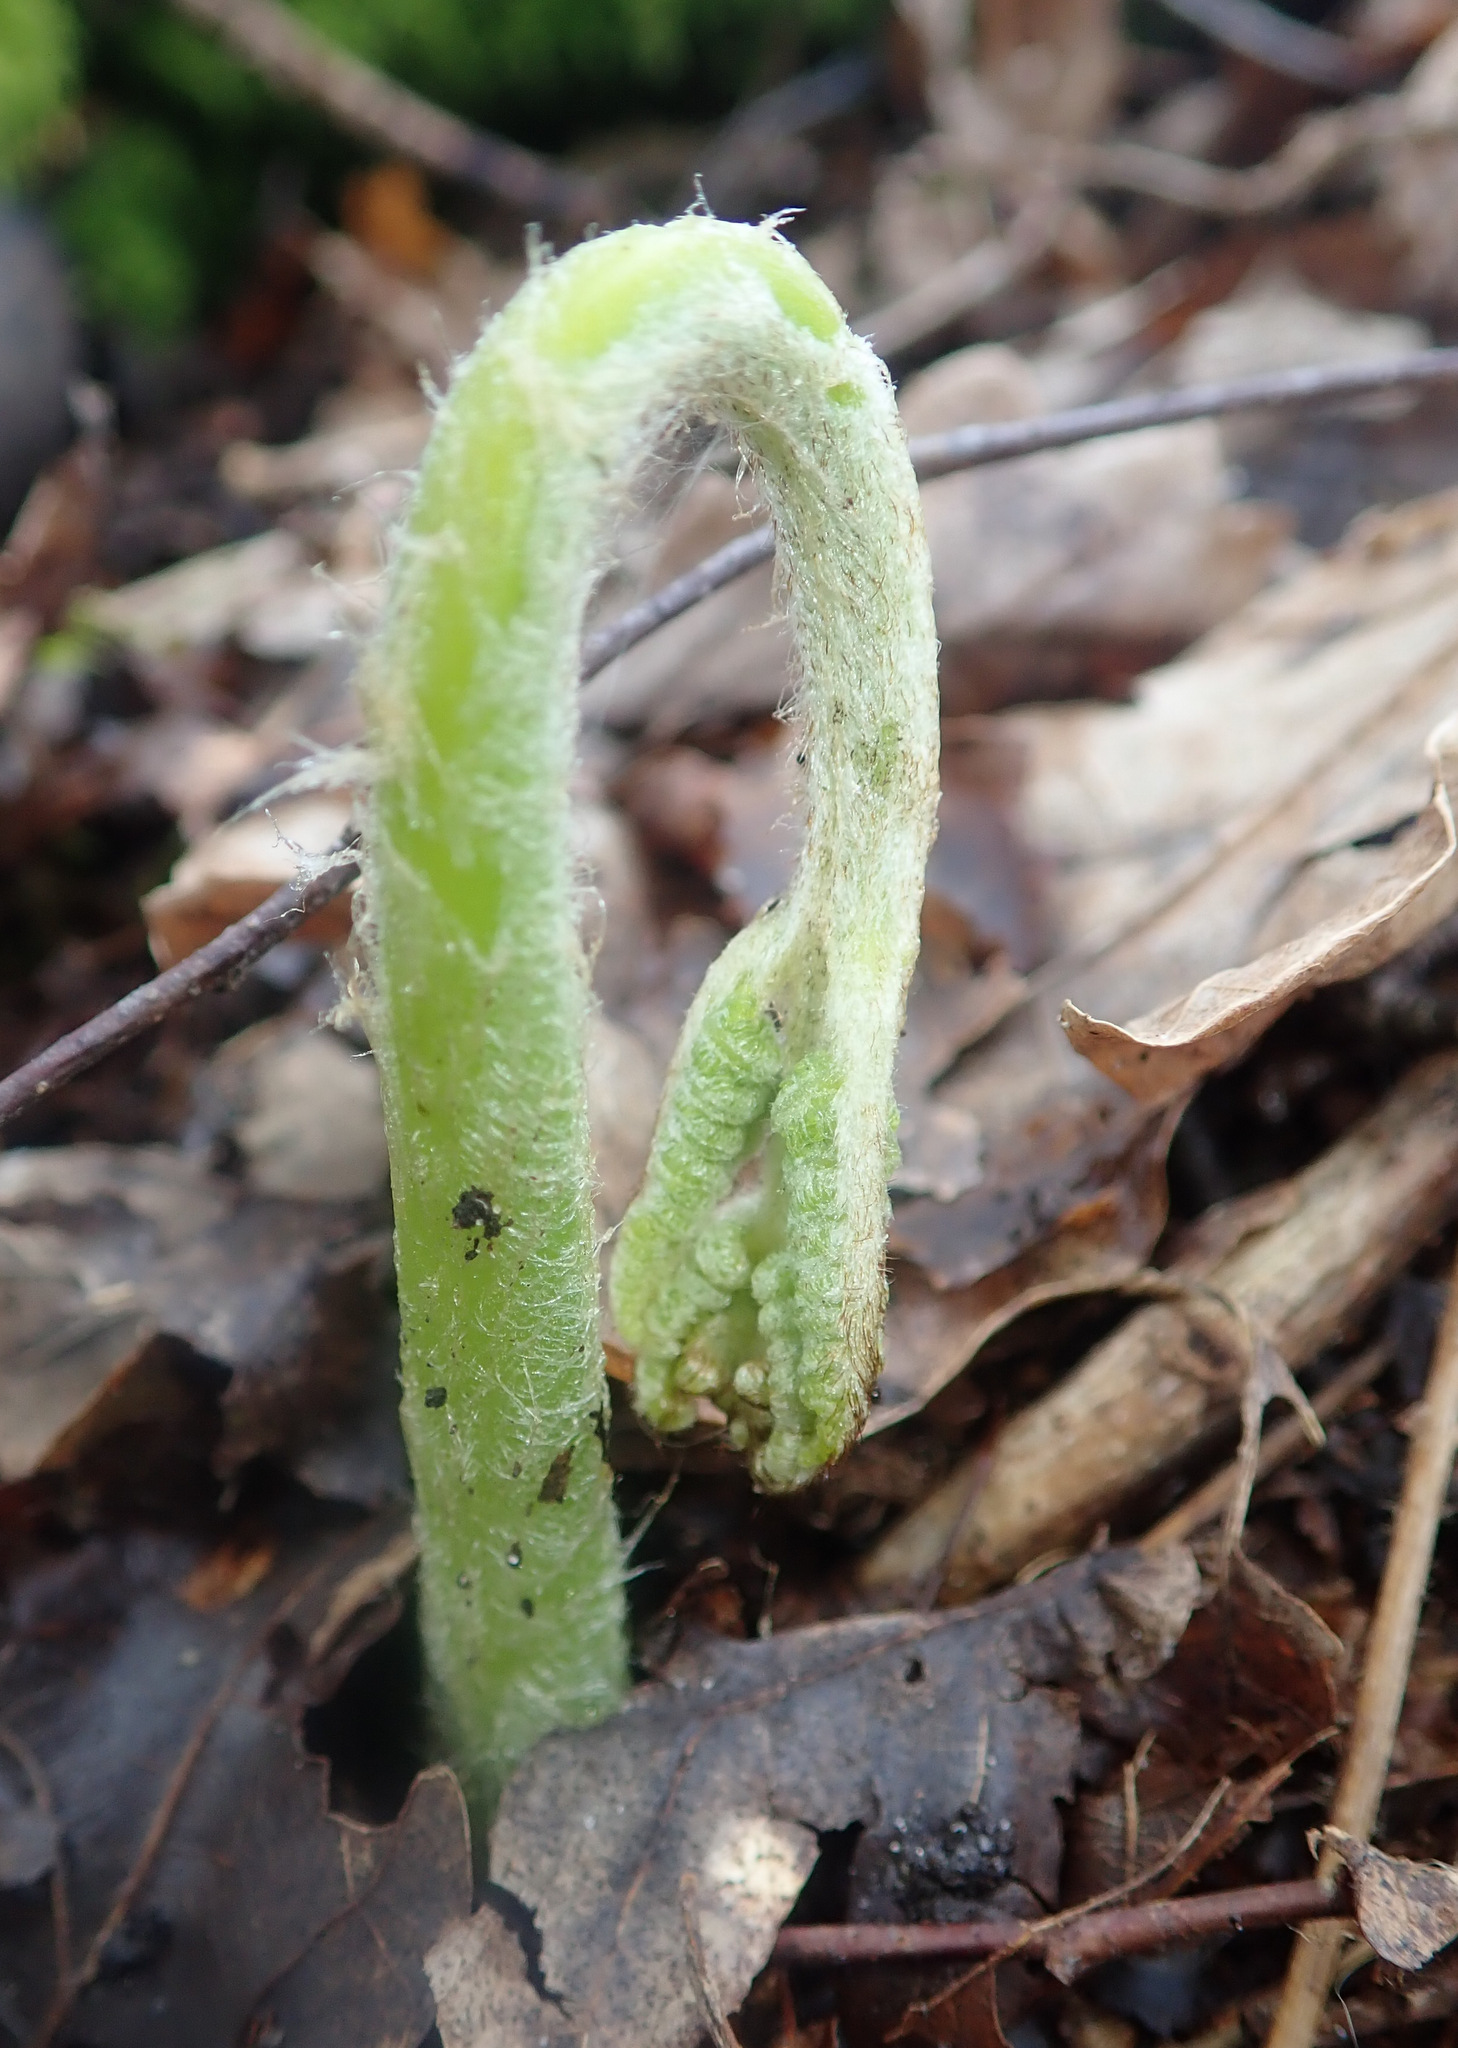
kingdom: Plantae
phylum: Tracheophyta
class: Polypodiopsida
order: Polypodiales
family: Dennstaedtiaceae
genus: Pteridium
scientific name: Pteridium aquilinum
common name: Bracken
